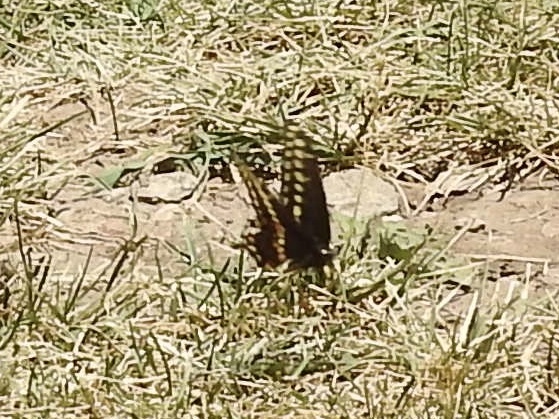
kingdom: Animalia
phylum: Arthropoda
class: Insecta
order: Lepidoptera
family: Papilionidae
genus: Papilio
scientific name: Papilio polyxenes
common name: Black swallowtail
